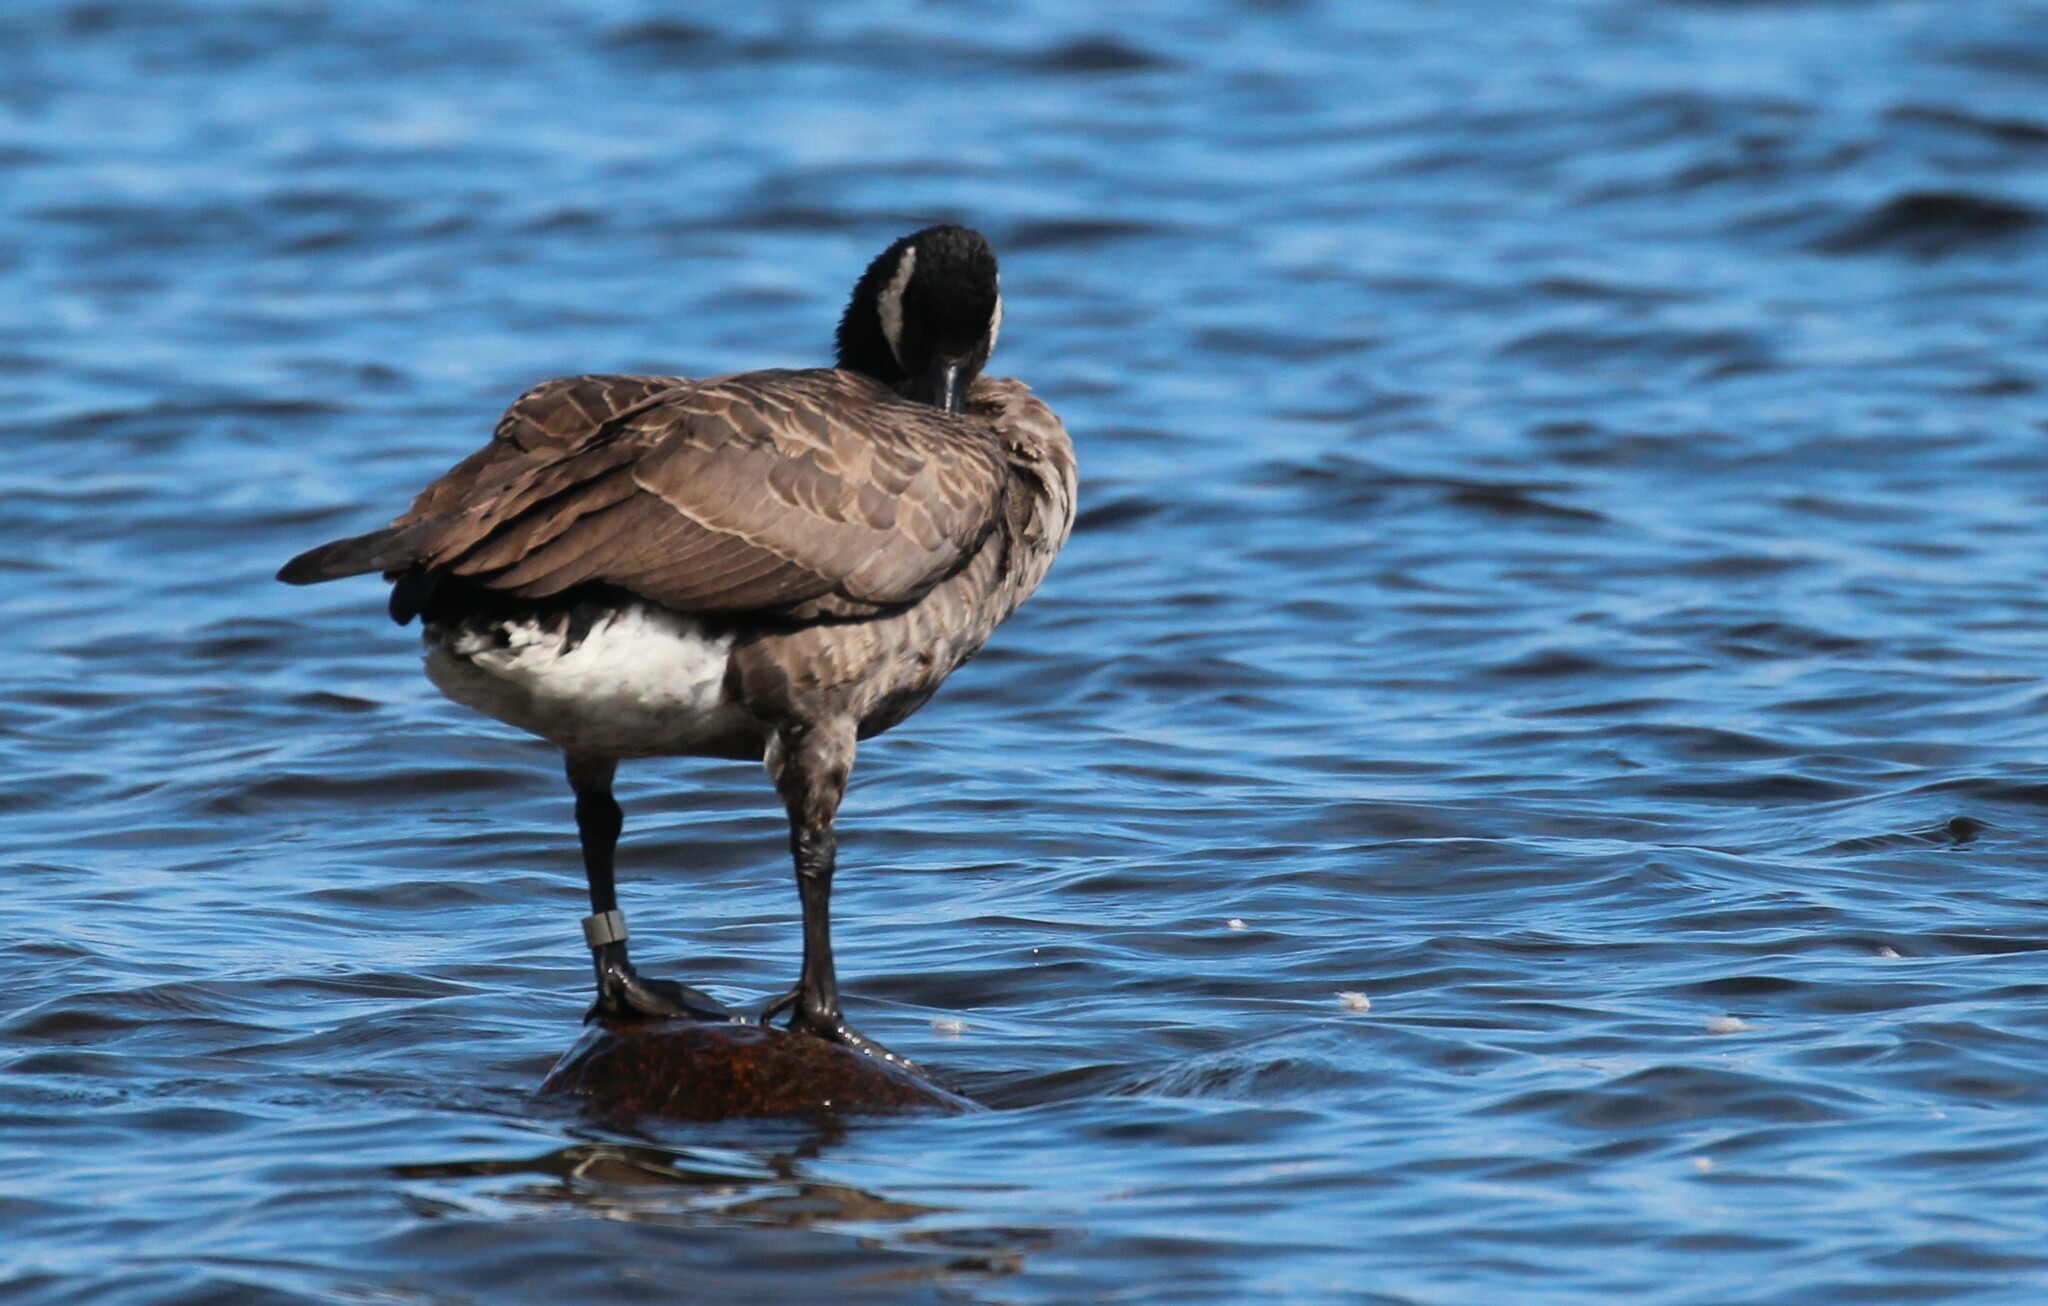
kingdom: Animalia
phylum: Chordata
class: Aves
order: Anseriformes
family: Anatidae
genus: Branta
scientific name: Branta canadensis
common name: Canada goose
